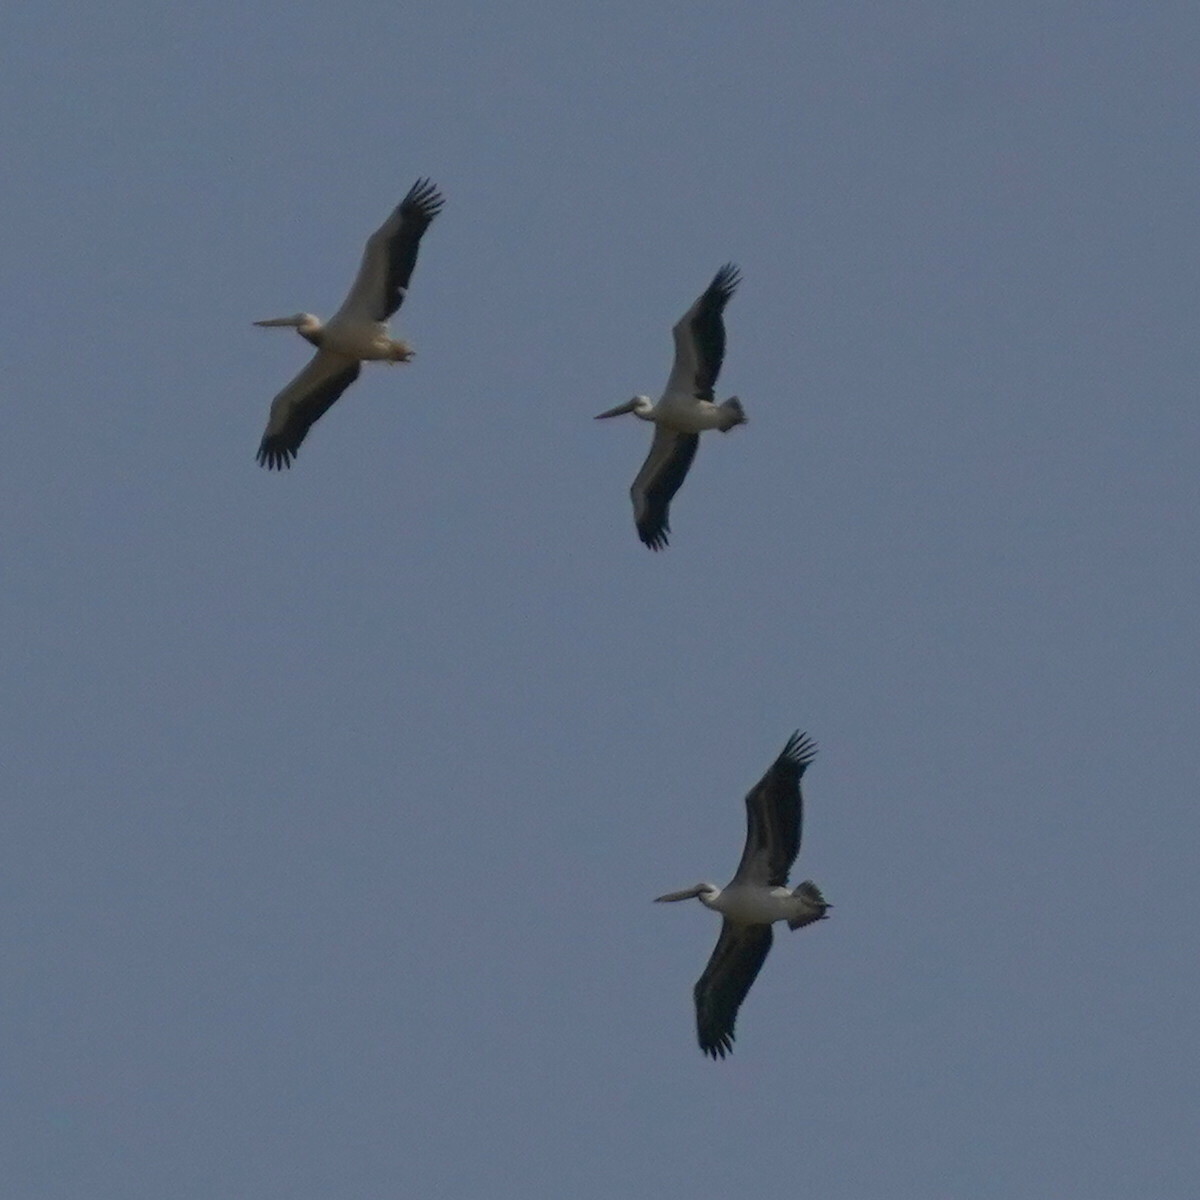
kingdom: Animalia
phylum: Chordata
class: Aves
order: Pelecaniformes
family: Pelecanidae
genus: Pelecanus
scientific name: Pelecanus onocrotalus
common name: Great white pelican
